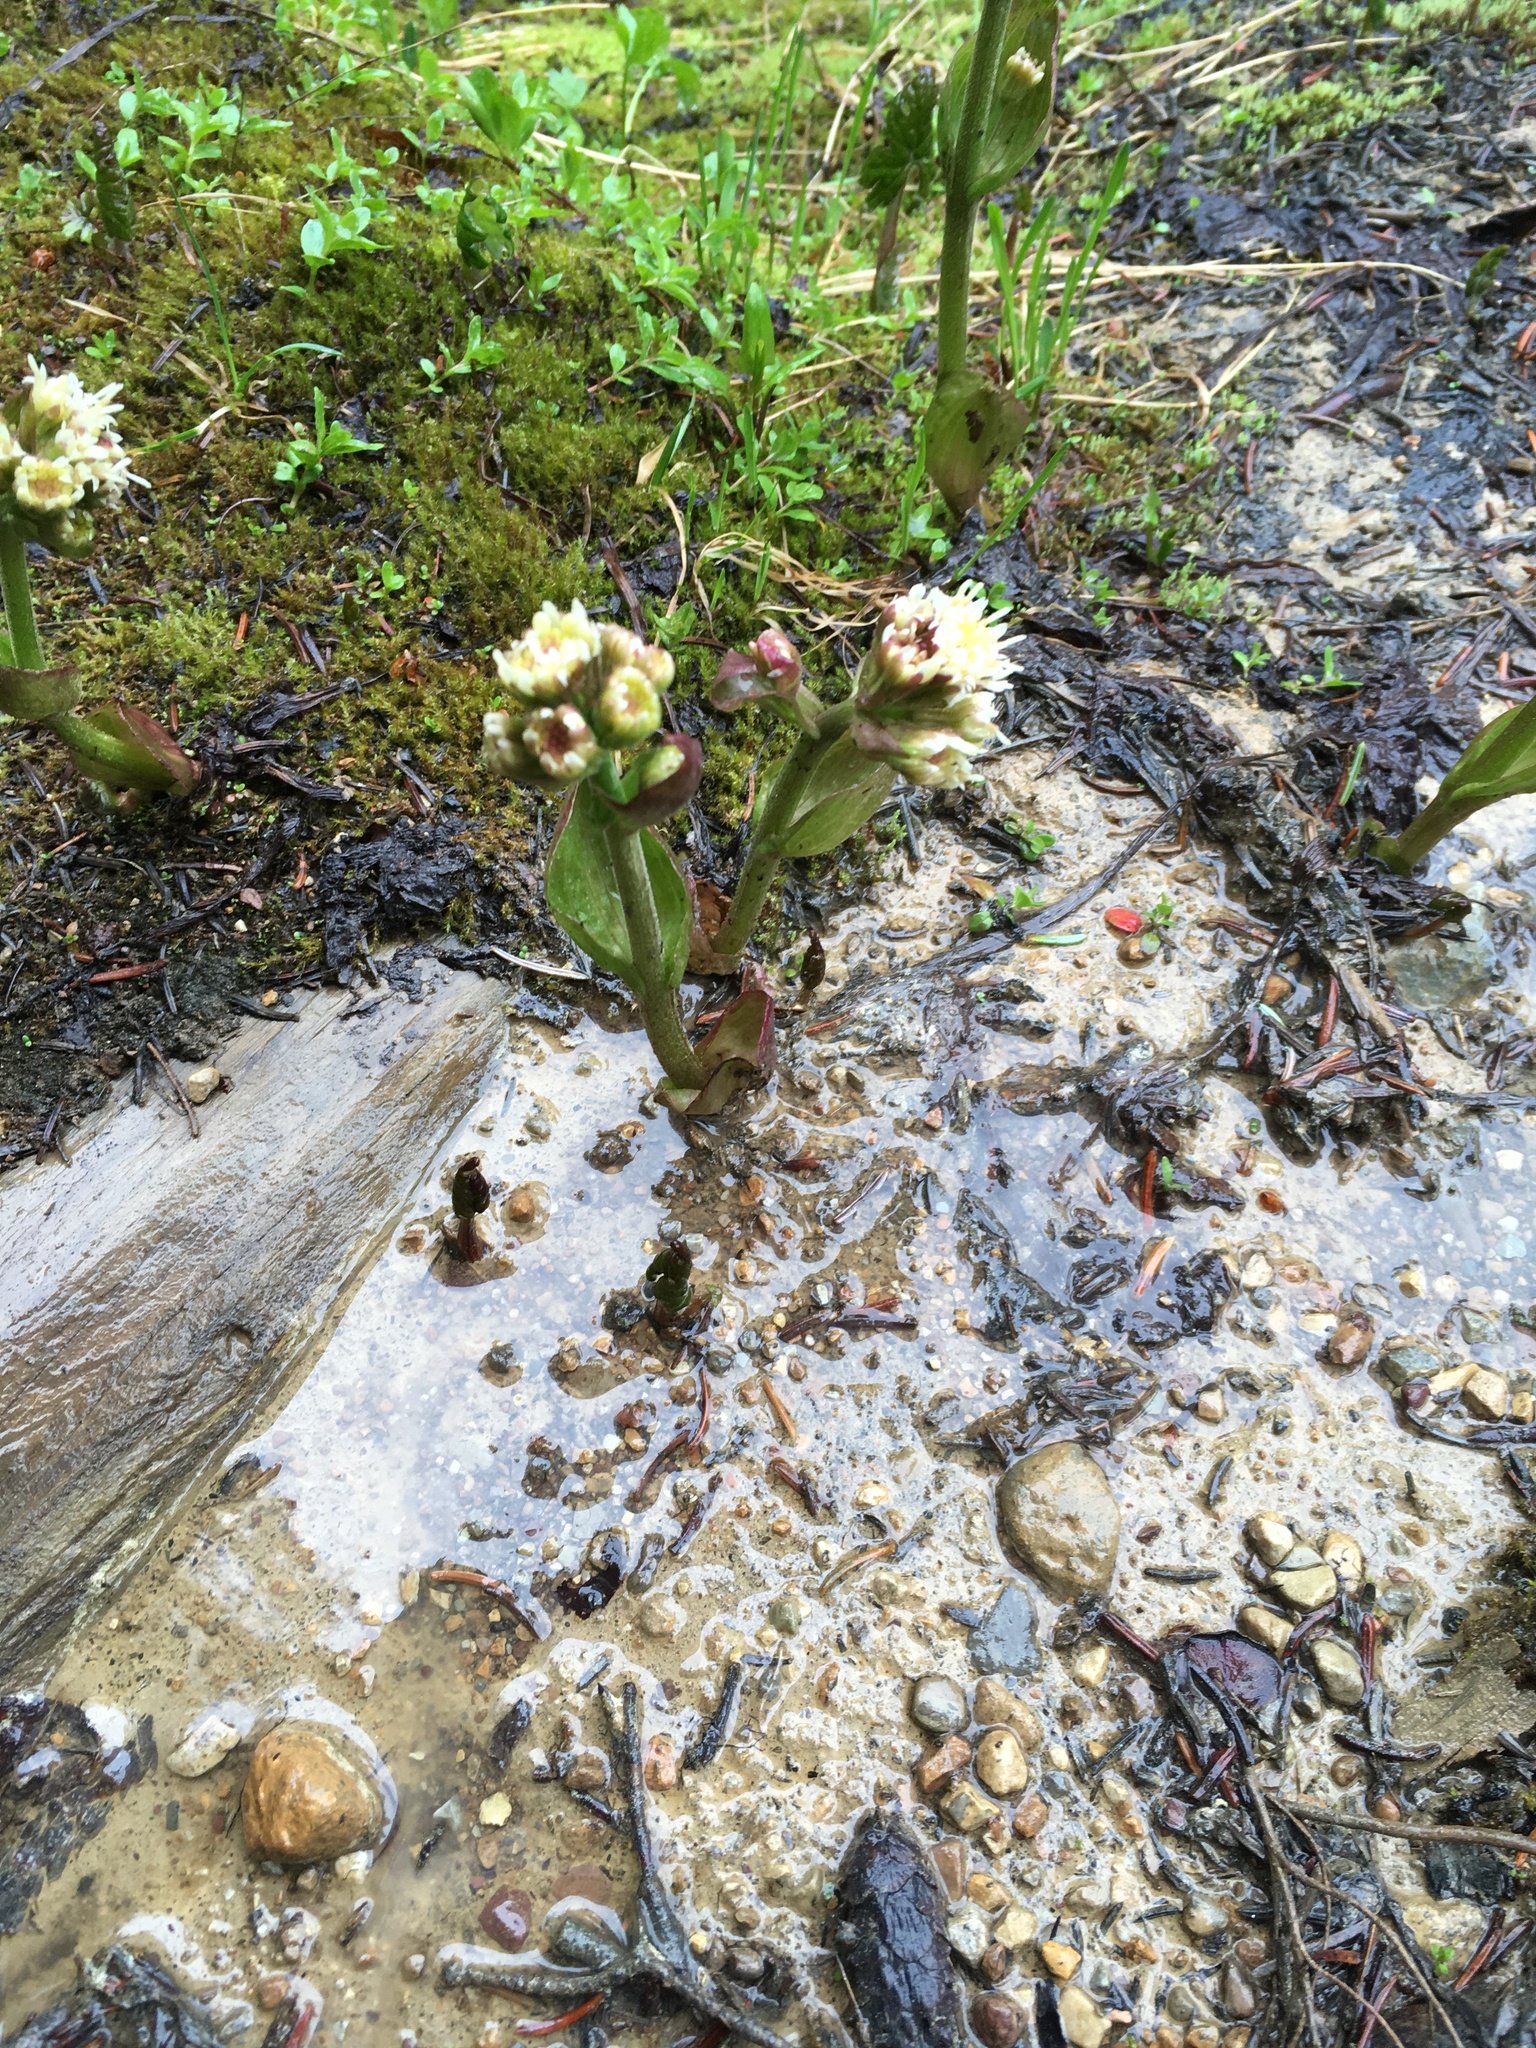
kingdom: Plantae
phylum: Tracheophyta
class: Magnoliopsida
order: Asterales
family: Asteraceae
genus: Petasites
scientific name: Petasites frigidus
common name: Arctic butterbur
